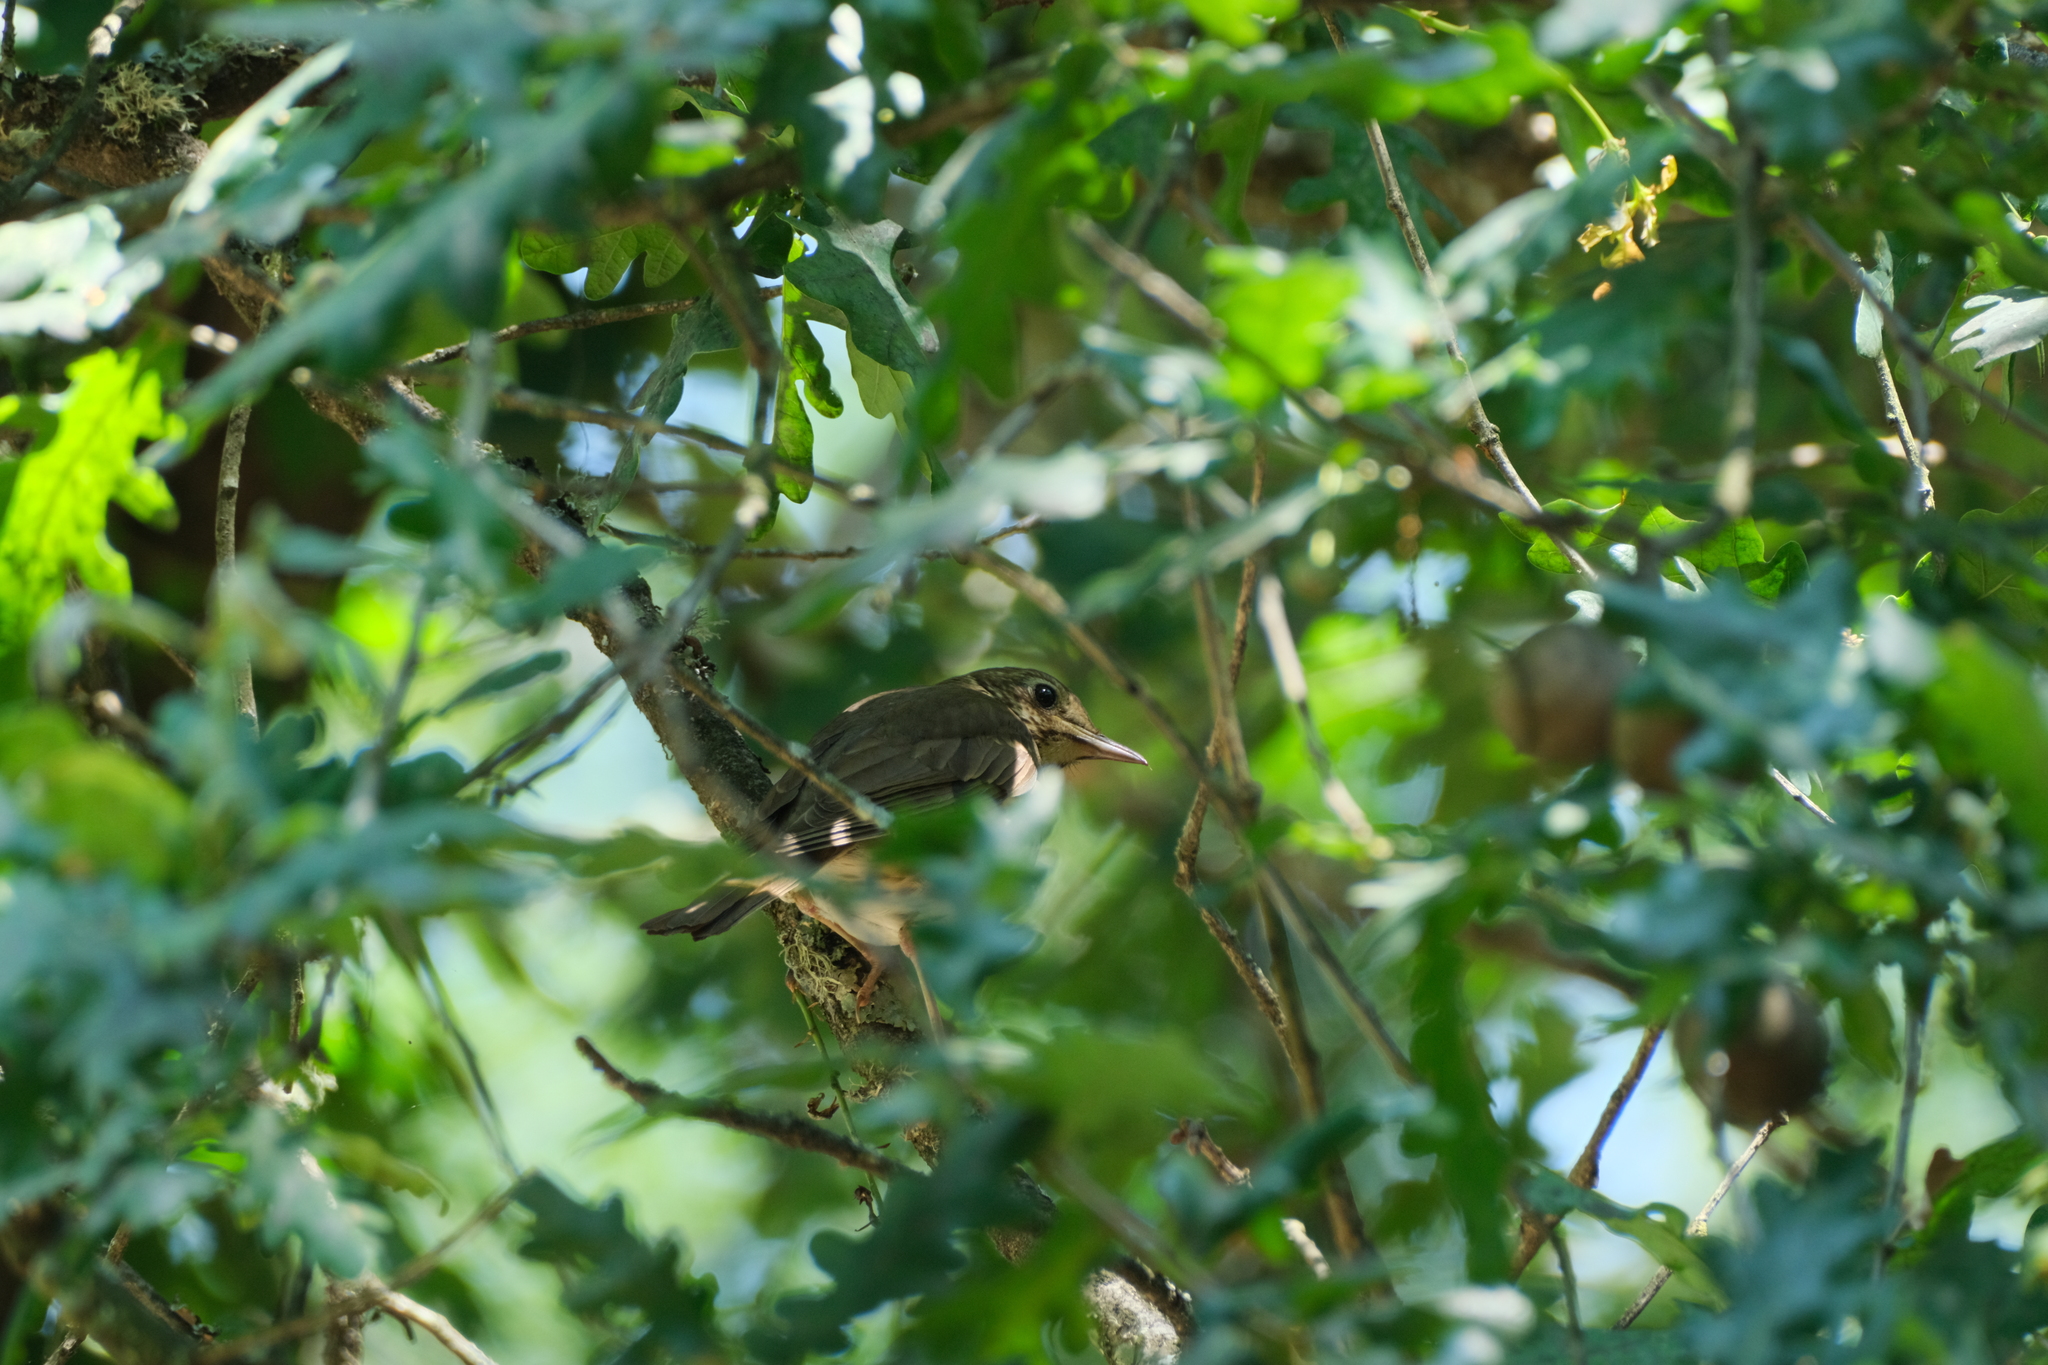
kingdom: Animalia
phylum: Chordata
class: Aves
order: Passeriformes
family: Turdidae
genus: Turdus
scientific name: Turdus philomelos
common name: Song thrush
